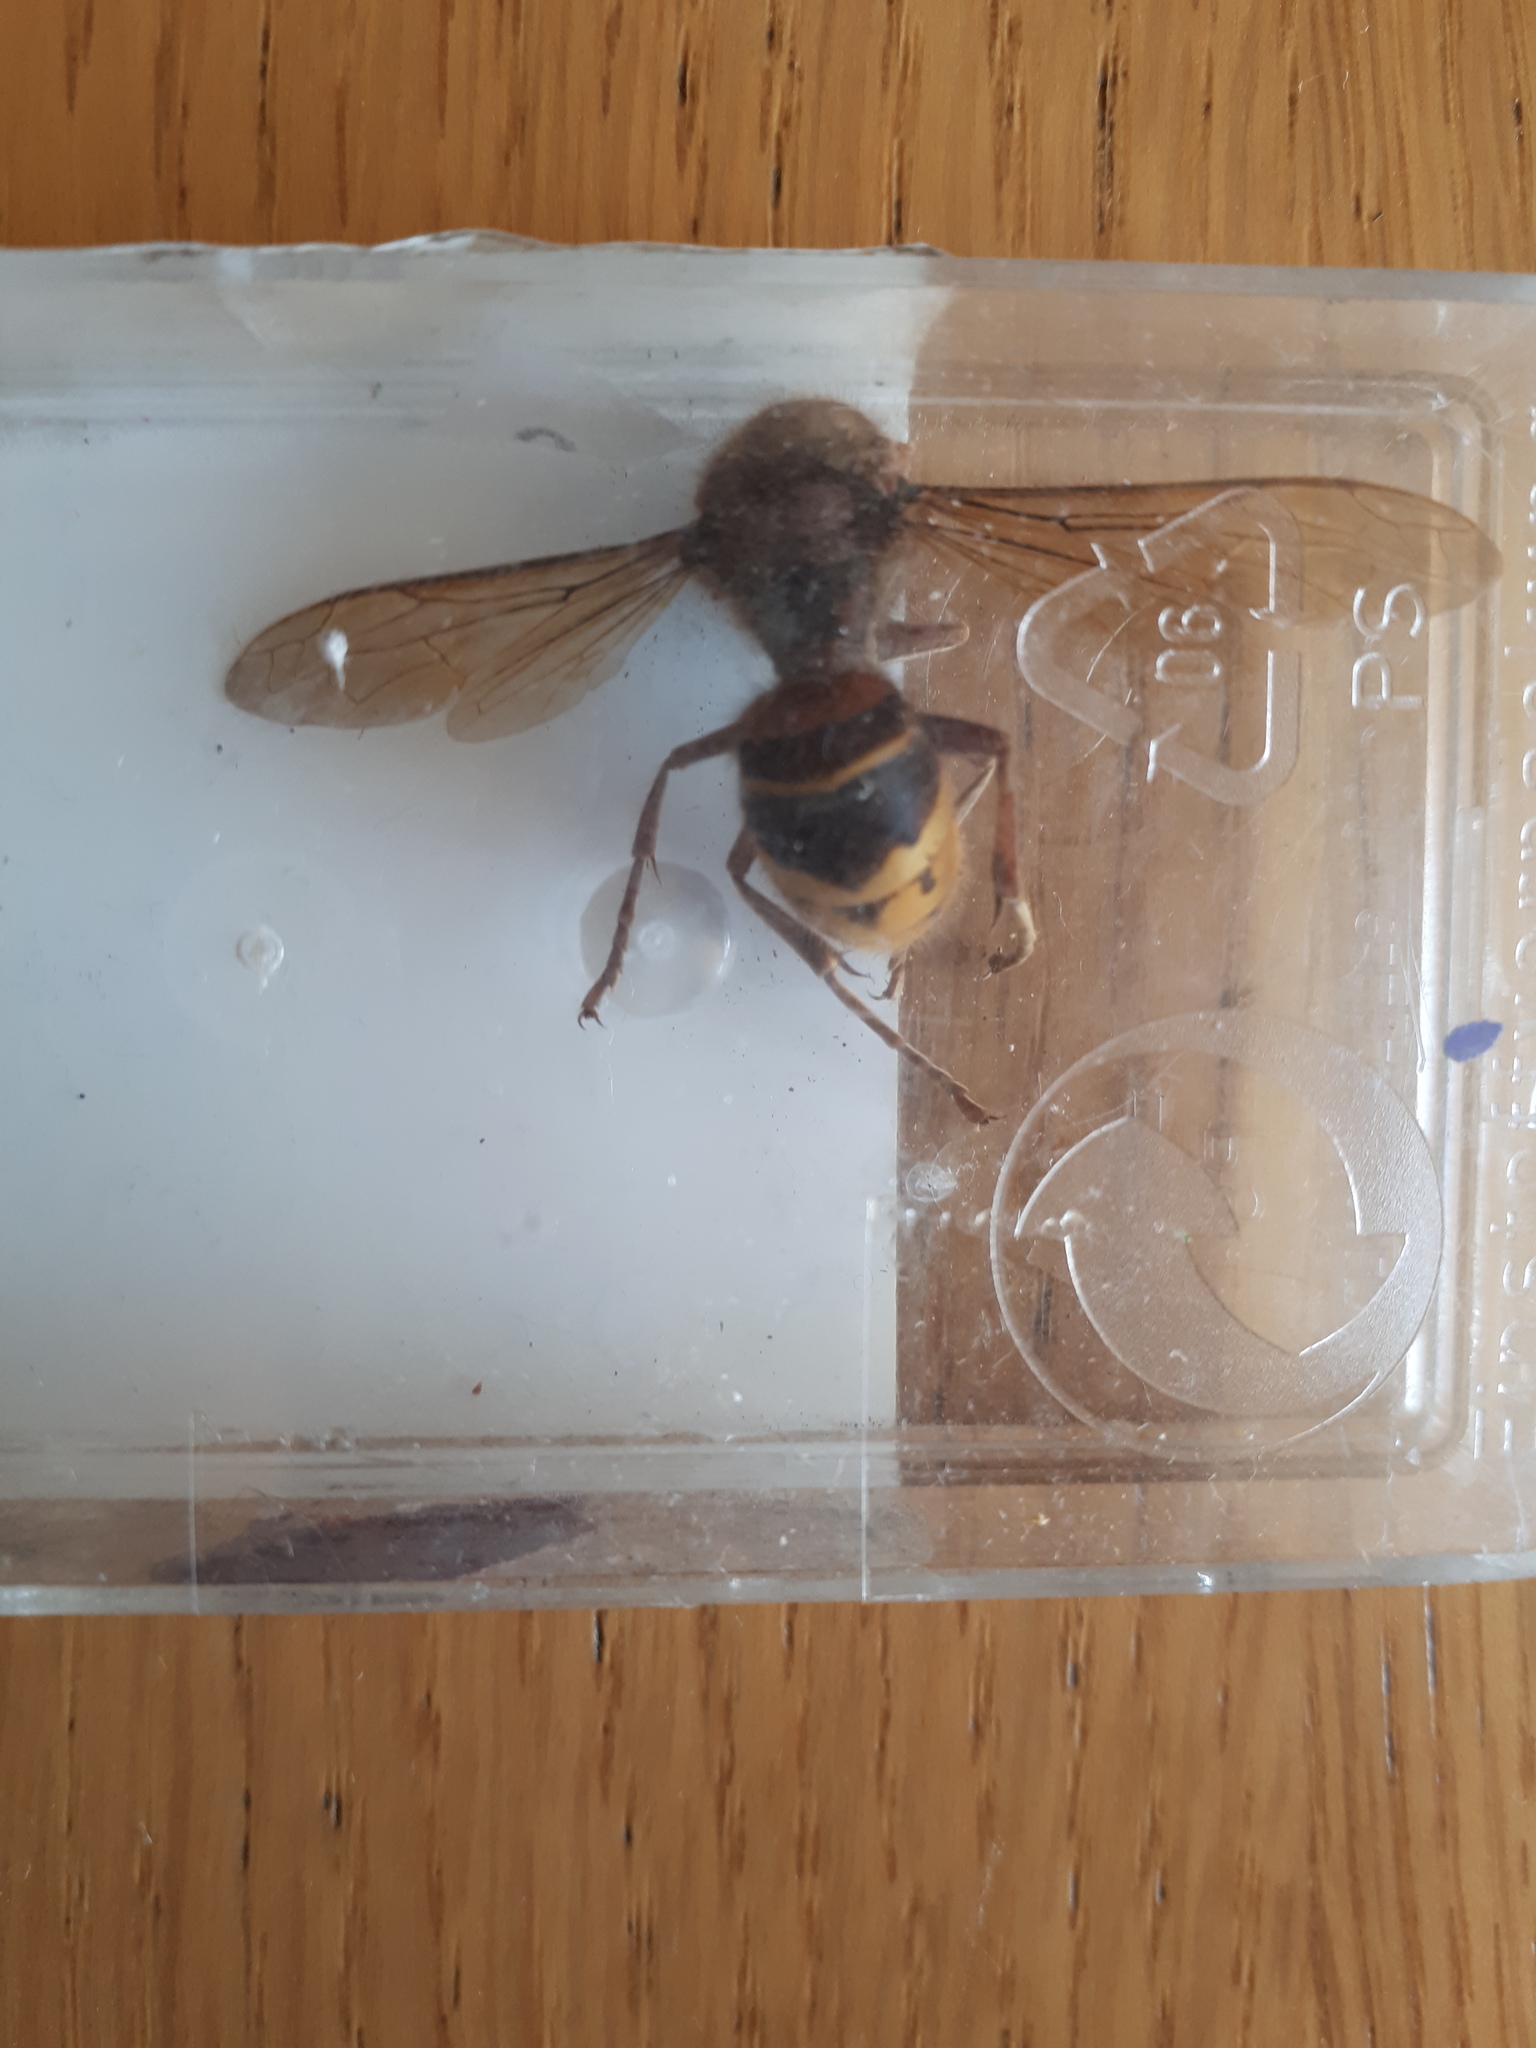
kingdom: Animalia
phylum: Arthropoda
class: Insecta
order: Hymenoptera
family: Vespidae
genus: Vespa
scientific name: Vespa crabro
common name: Hornet
